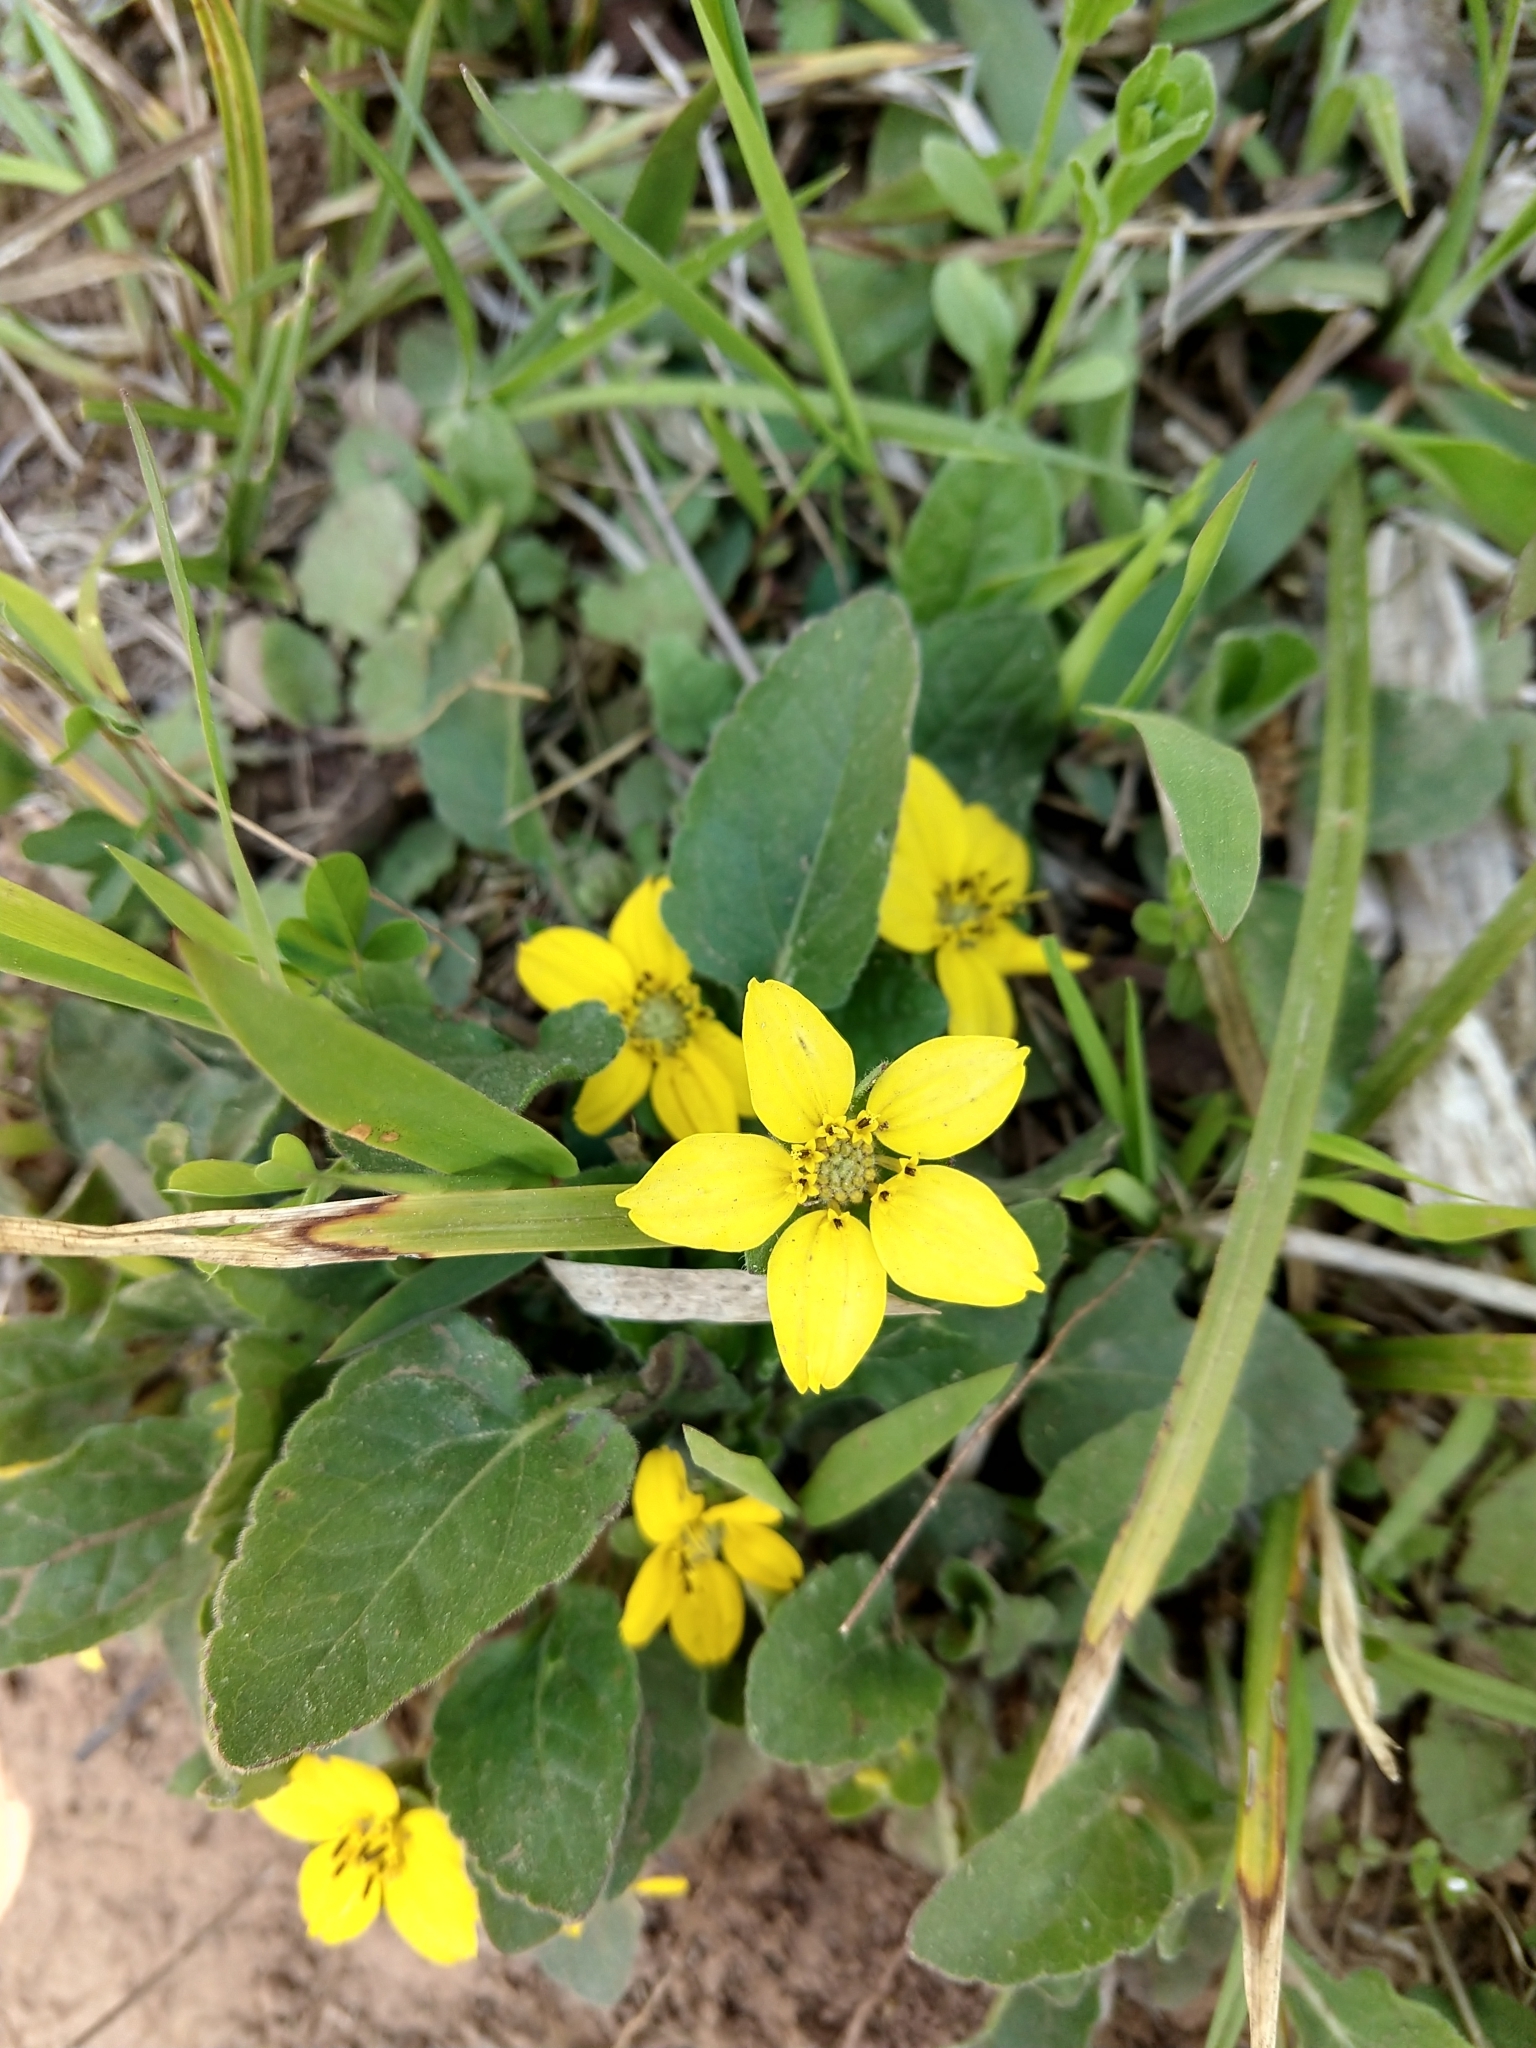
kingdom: Plantae
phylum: Tracheophyta
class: Magnoliopsida
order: Asterales
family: Asteraceae
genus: Chrysogonum
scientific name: Chrysogonum virginianum
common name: Golden-knee
